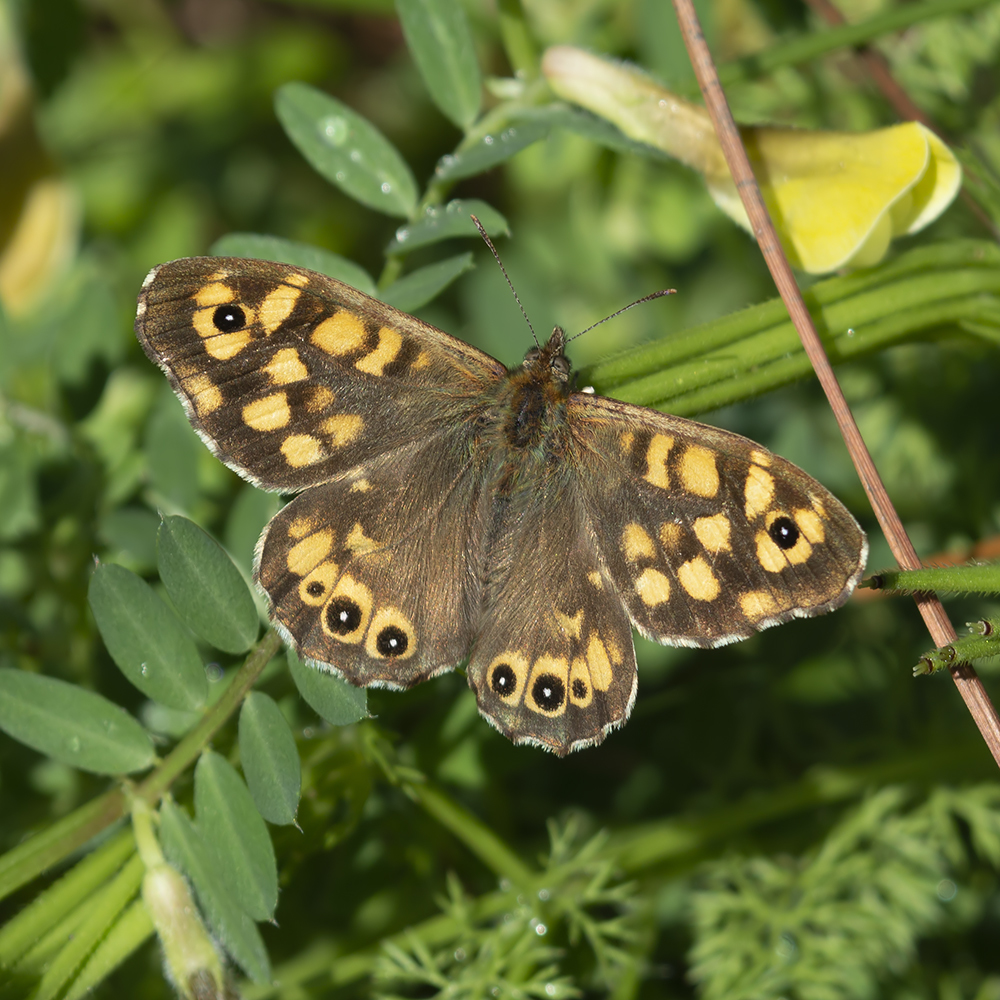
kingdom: Animalia
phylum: Arthropoda
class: Insecta
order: Lepidoptera
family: Nymphalidae
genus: Pararge
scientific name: Pararge aegeria
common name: Speckled wood
